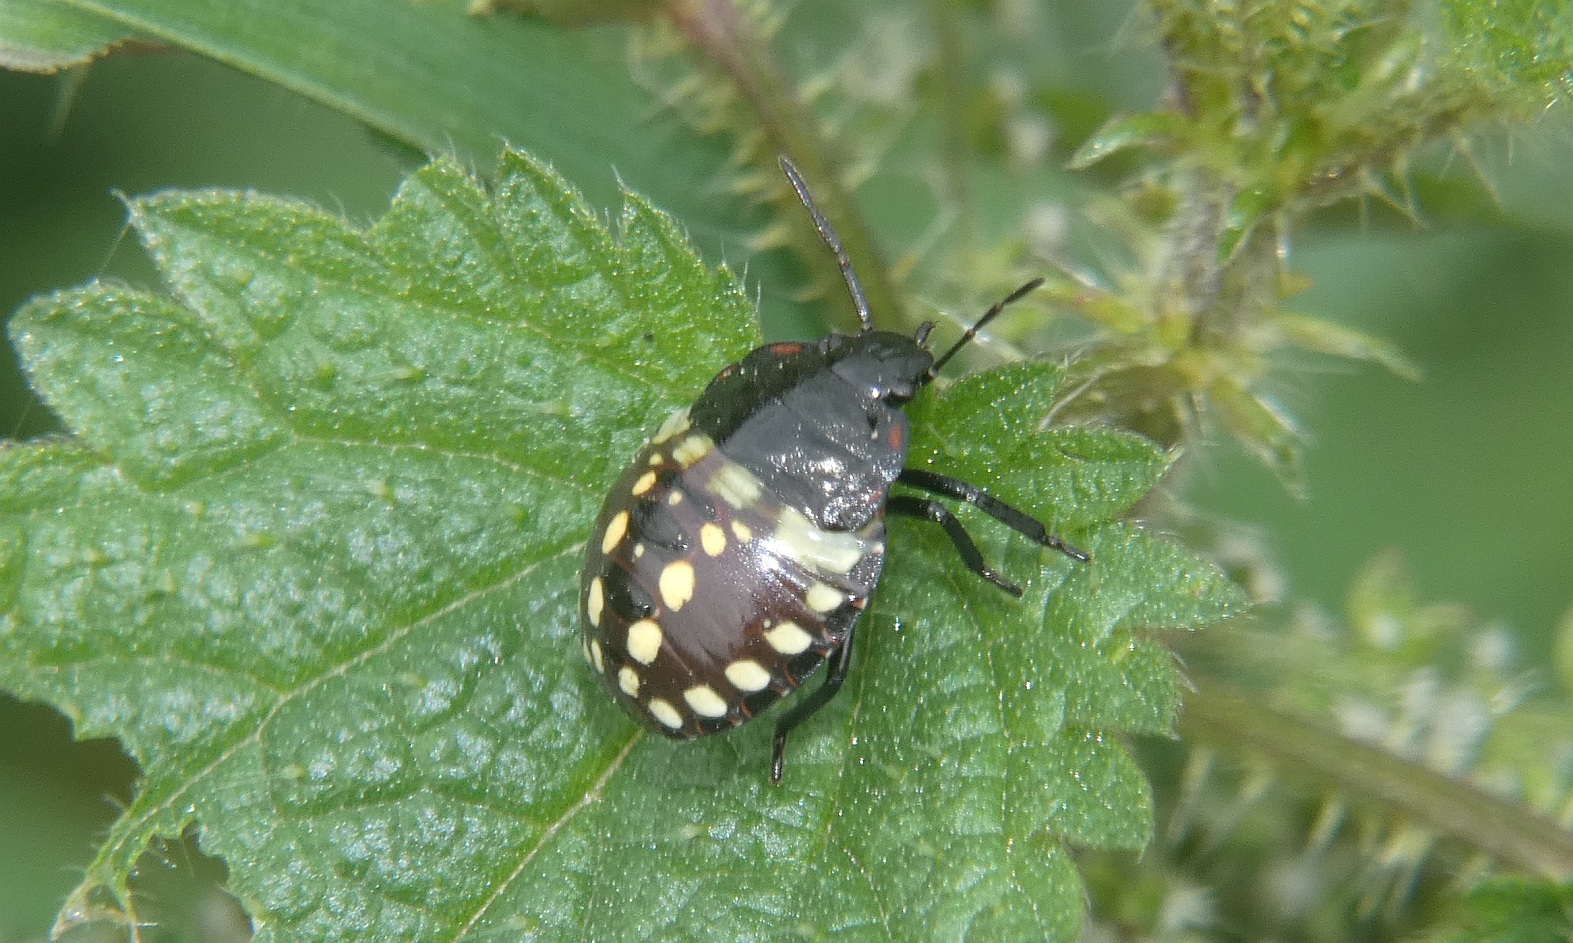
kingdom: Animalia
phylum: Arthropoda
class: Insecta
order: Hemiptera
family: Pentatomidae
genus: Nezara
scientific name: Nezara viridula
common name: Southern green stink bug
